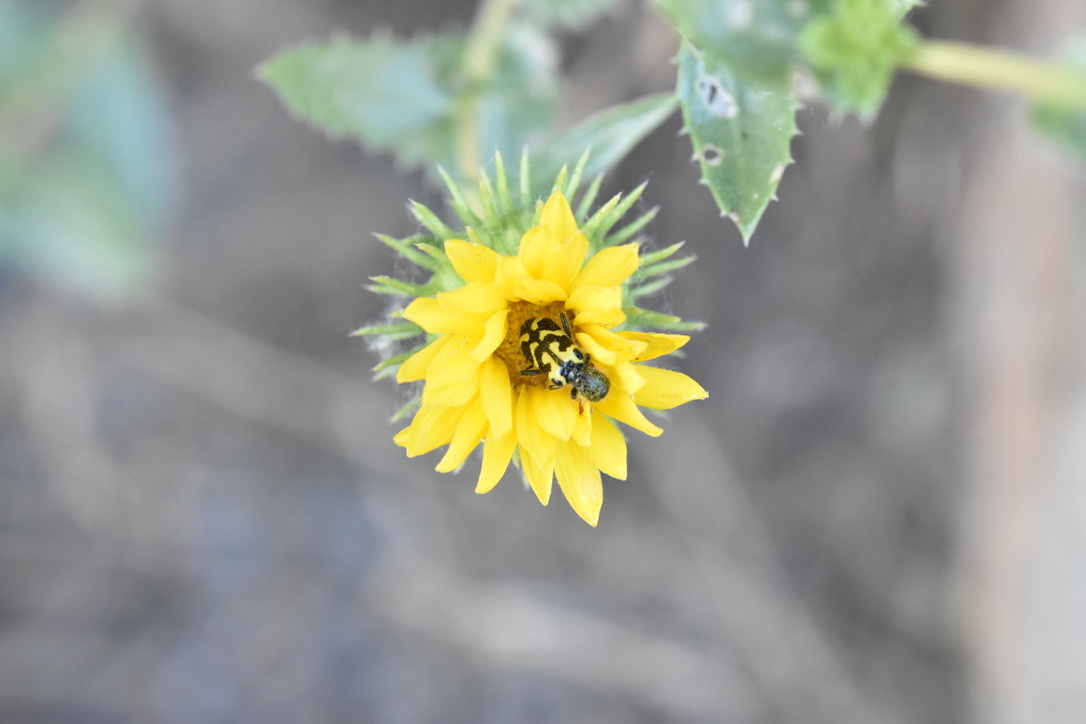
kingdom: Animalia
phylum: Arthropoda
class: Insecta
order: Coleoptera
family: Cleridae
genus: Trichodes
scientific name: Trichodes ornatus
